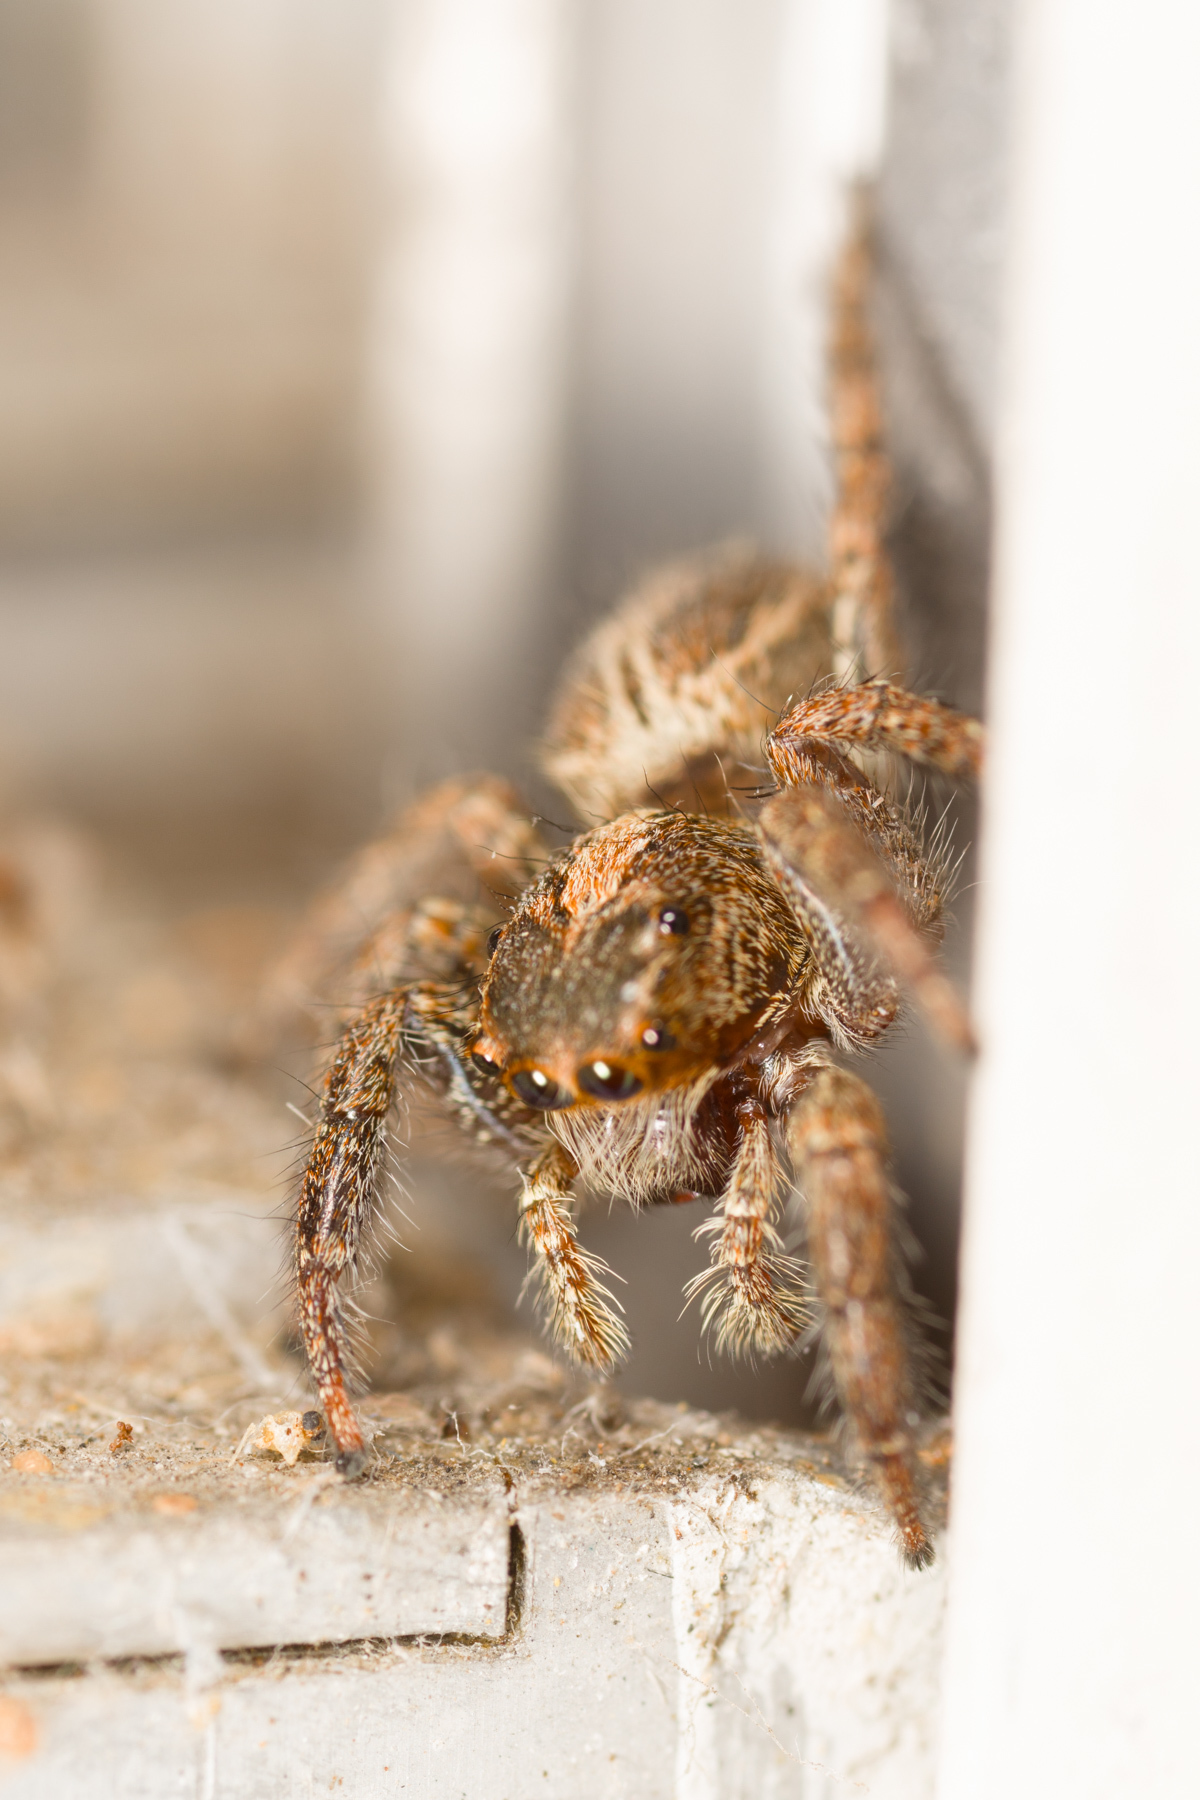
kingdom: Animalia
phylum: Arthropoda
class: Arachnida
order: Araneae
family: Salticidae
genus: Plexippus
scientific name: Plexippus paykulli
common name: Pantropical jumper
